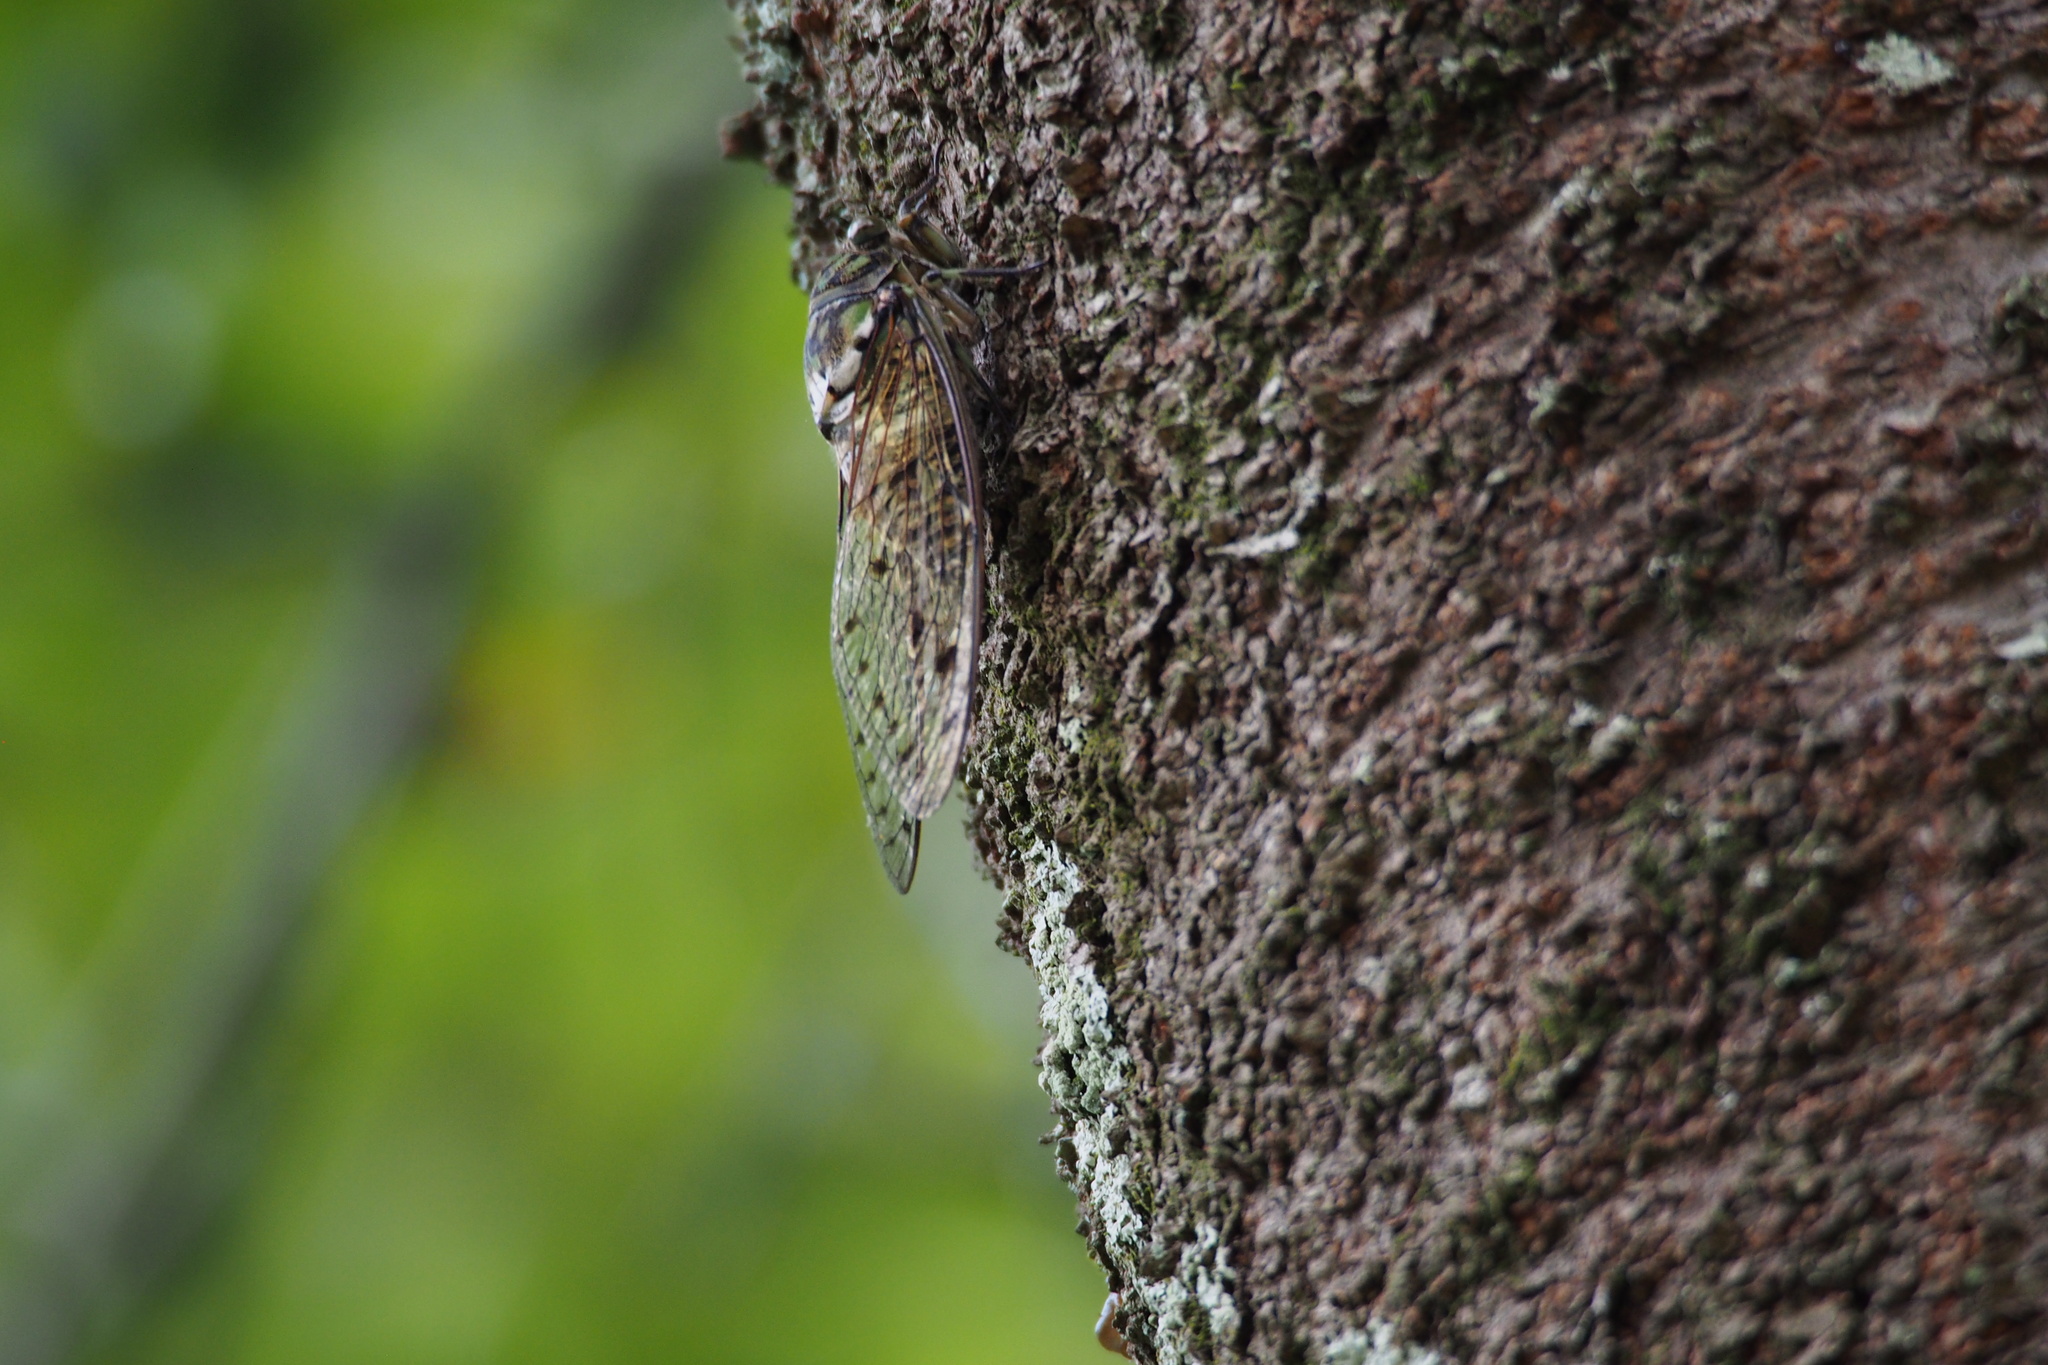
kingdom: Animalia
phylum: Arthropoda
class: Insecta
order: Hemiptera
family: Cicadidae
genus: Hyalessa
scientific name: Hyalessa maculaticollis
